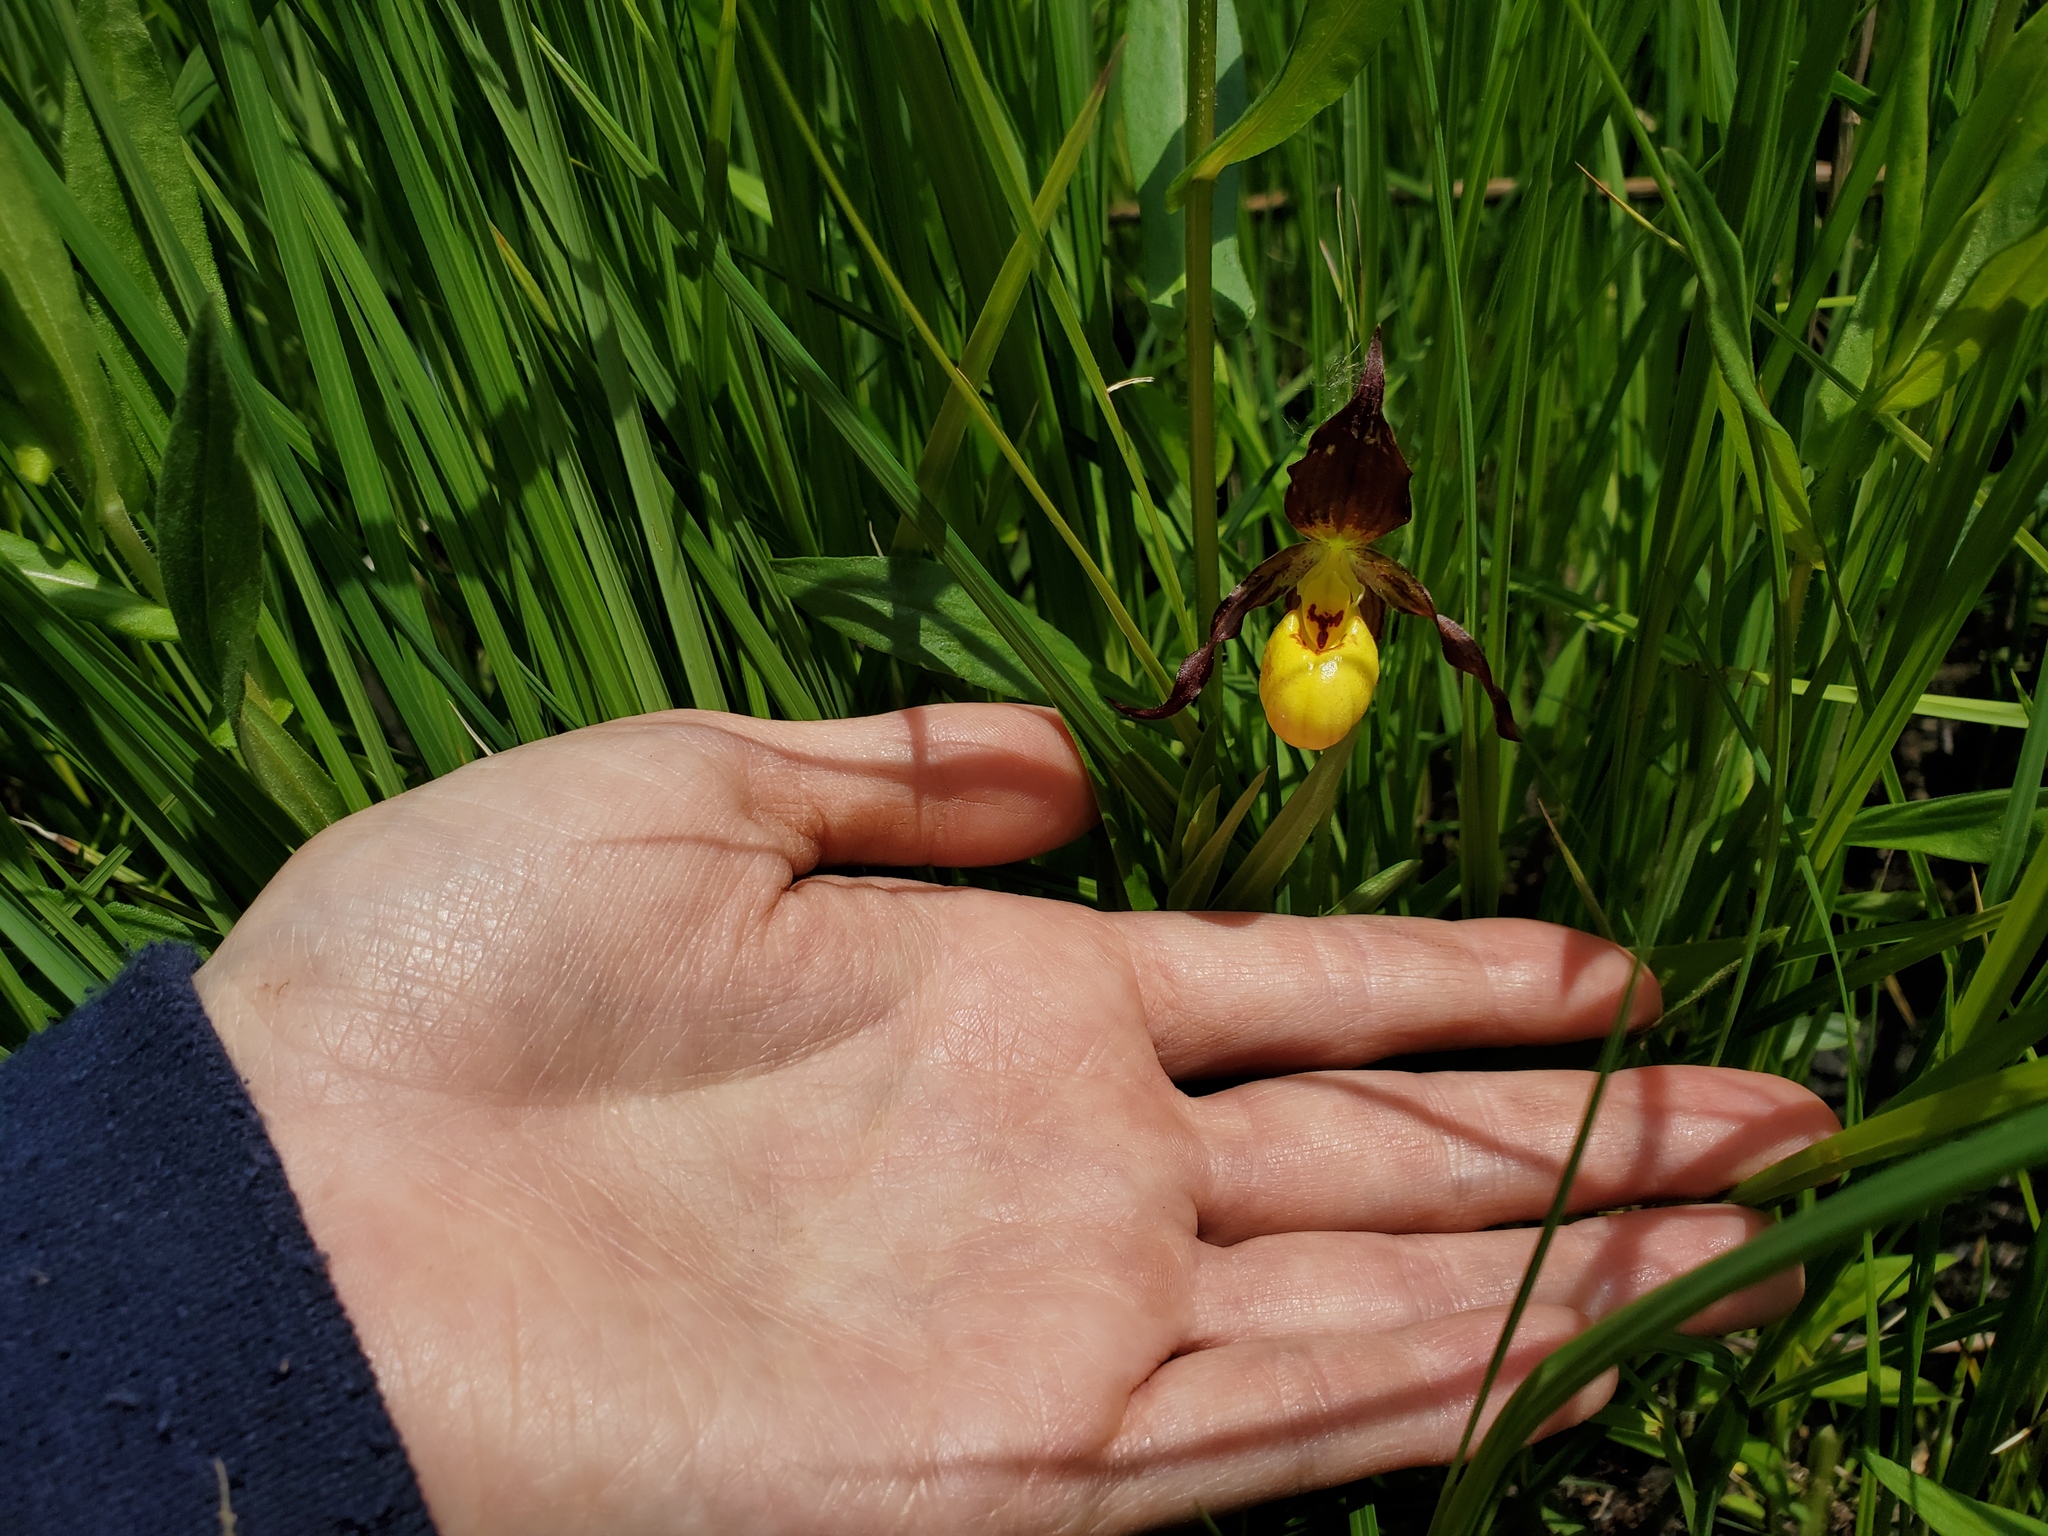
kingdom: Plantae
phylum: Tracheophyta
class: Liliopsida
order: Asparagales
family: Orchidaceae
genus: Cypripedium
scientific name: Cypripedium parviflorum
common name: American yellow lady's-slipper
